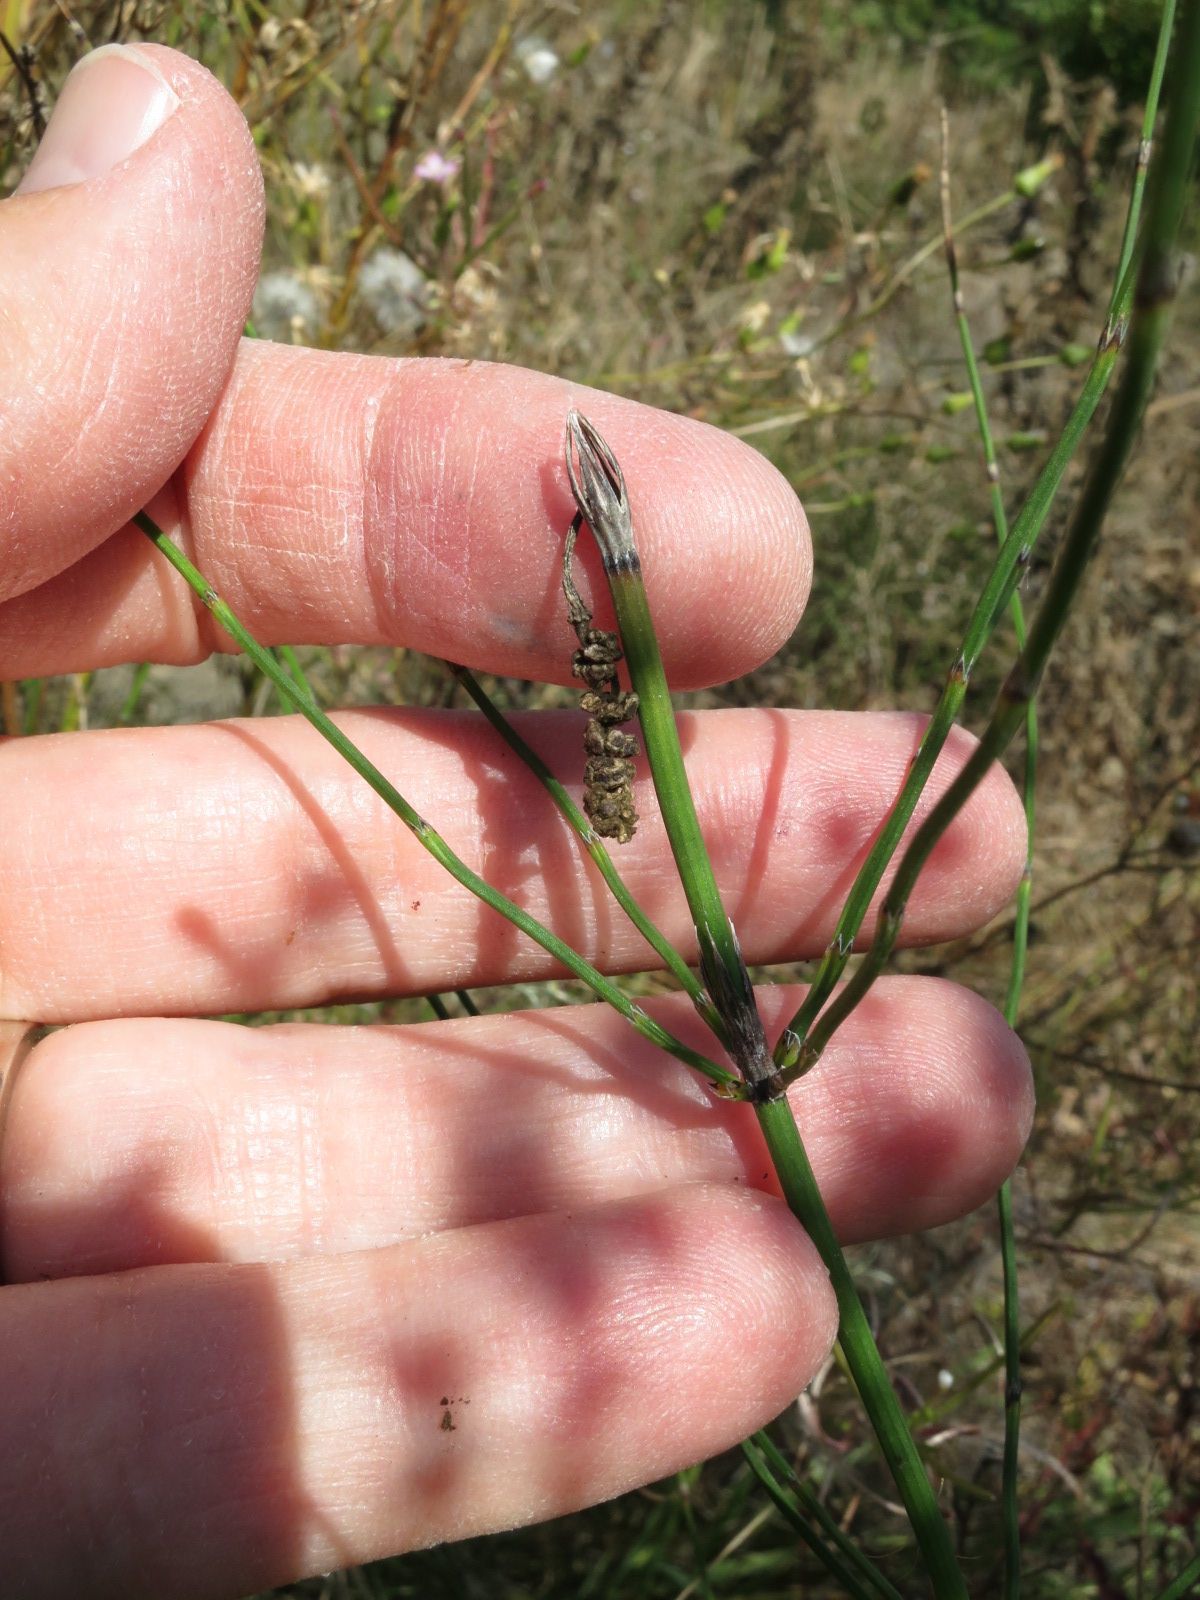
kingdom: Plantae
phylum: Tracheophyta
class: Polypodiopsida
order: Equisetales
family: Equisetaceae
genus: Equisetum
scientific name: Equisetum palustre
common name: Marsh horsetail
